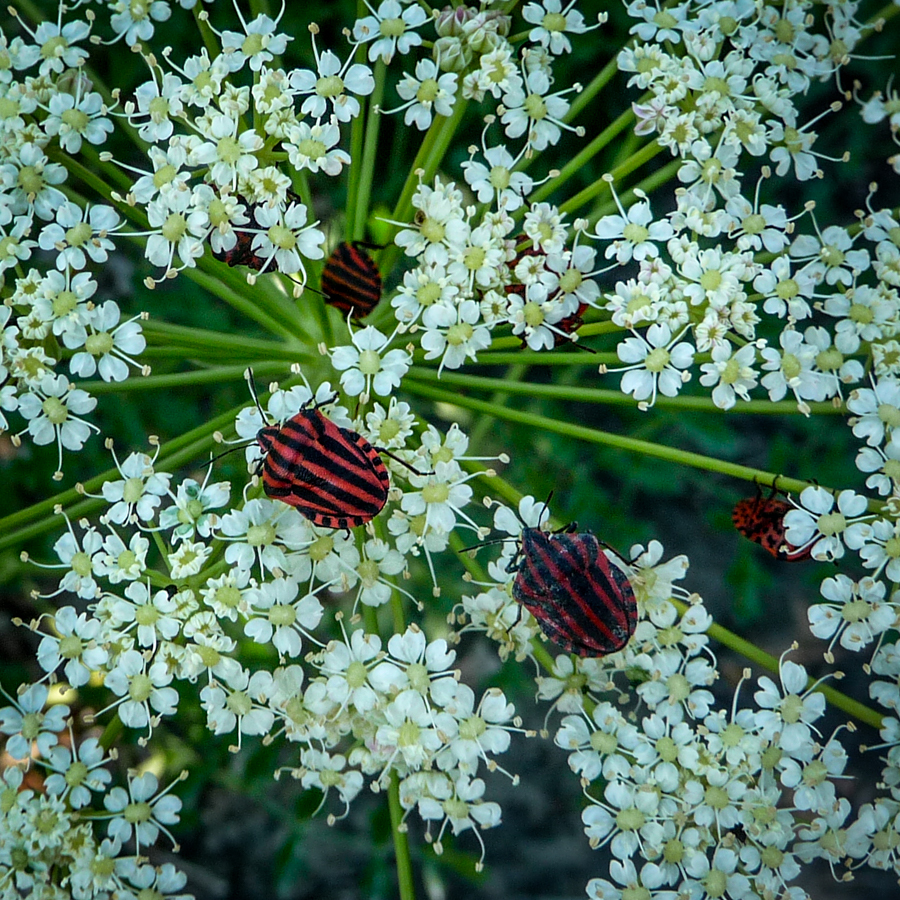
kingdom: Animalia
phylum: Arthropoda
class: Insecta
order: Hemiptera
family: Pentatomidae
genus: Graphosoma
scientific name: Graphosoma italicum
